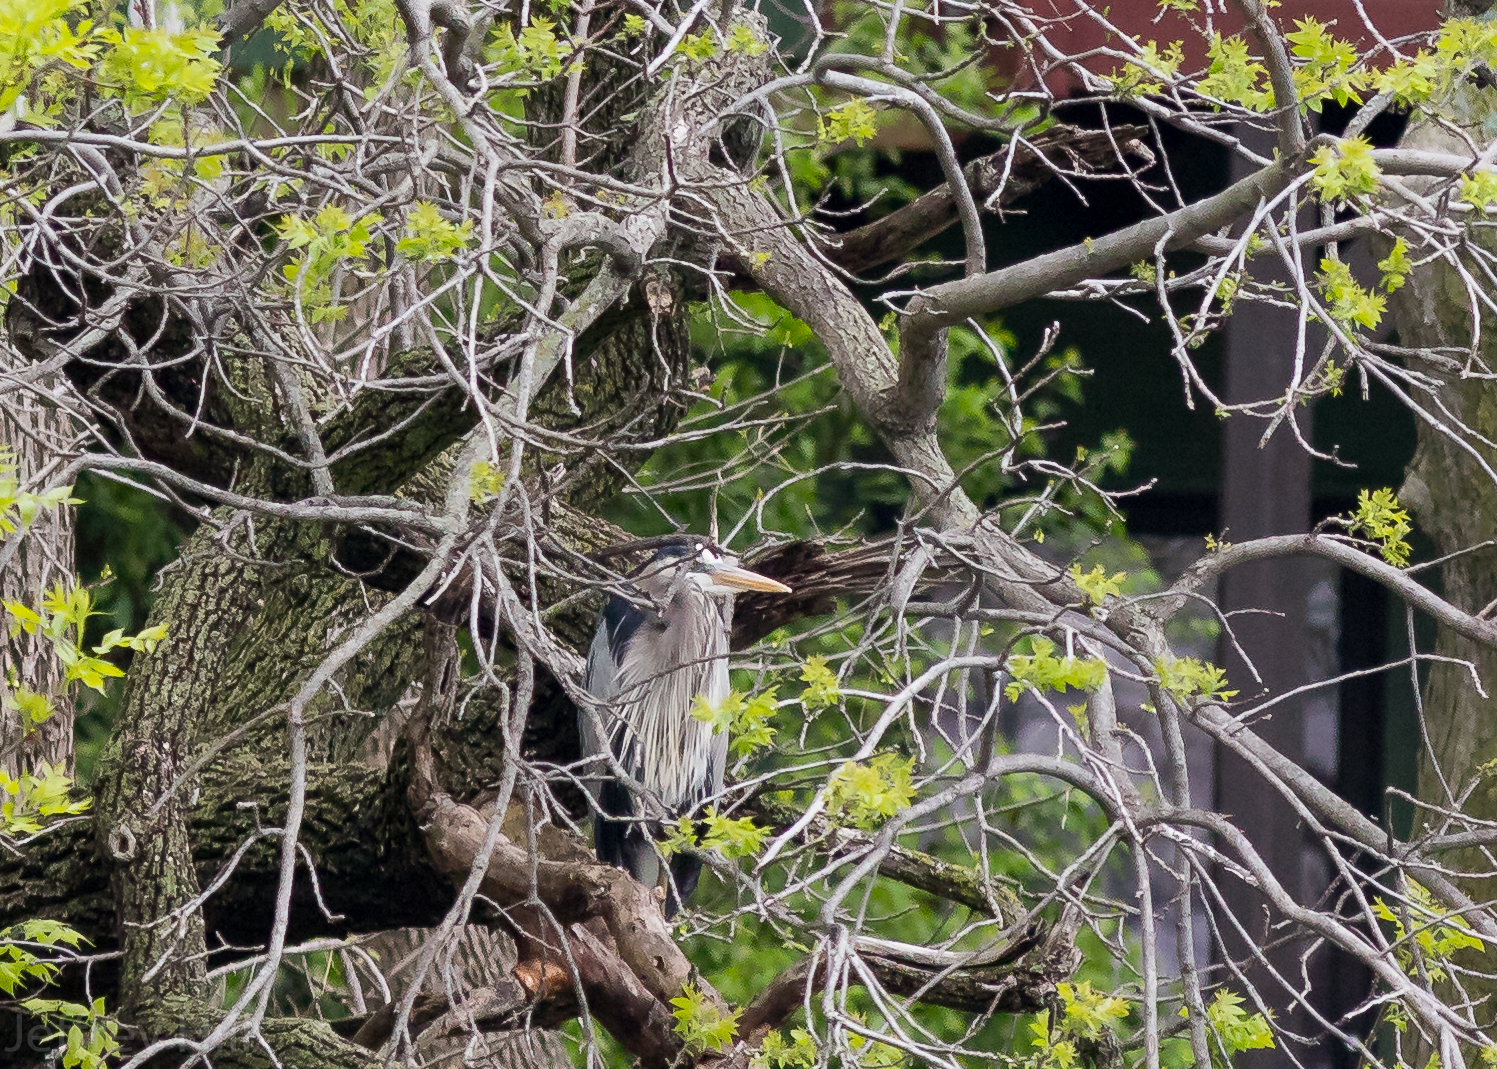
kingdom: Animalia
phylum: Chordata
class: Aves
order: Pelecaniformes
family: Ardeidae
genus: Ardea
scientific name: Ardea herodias
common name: Great blue heron
